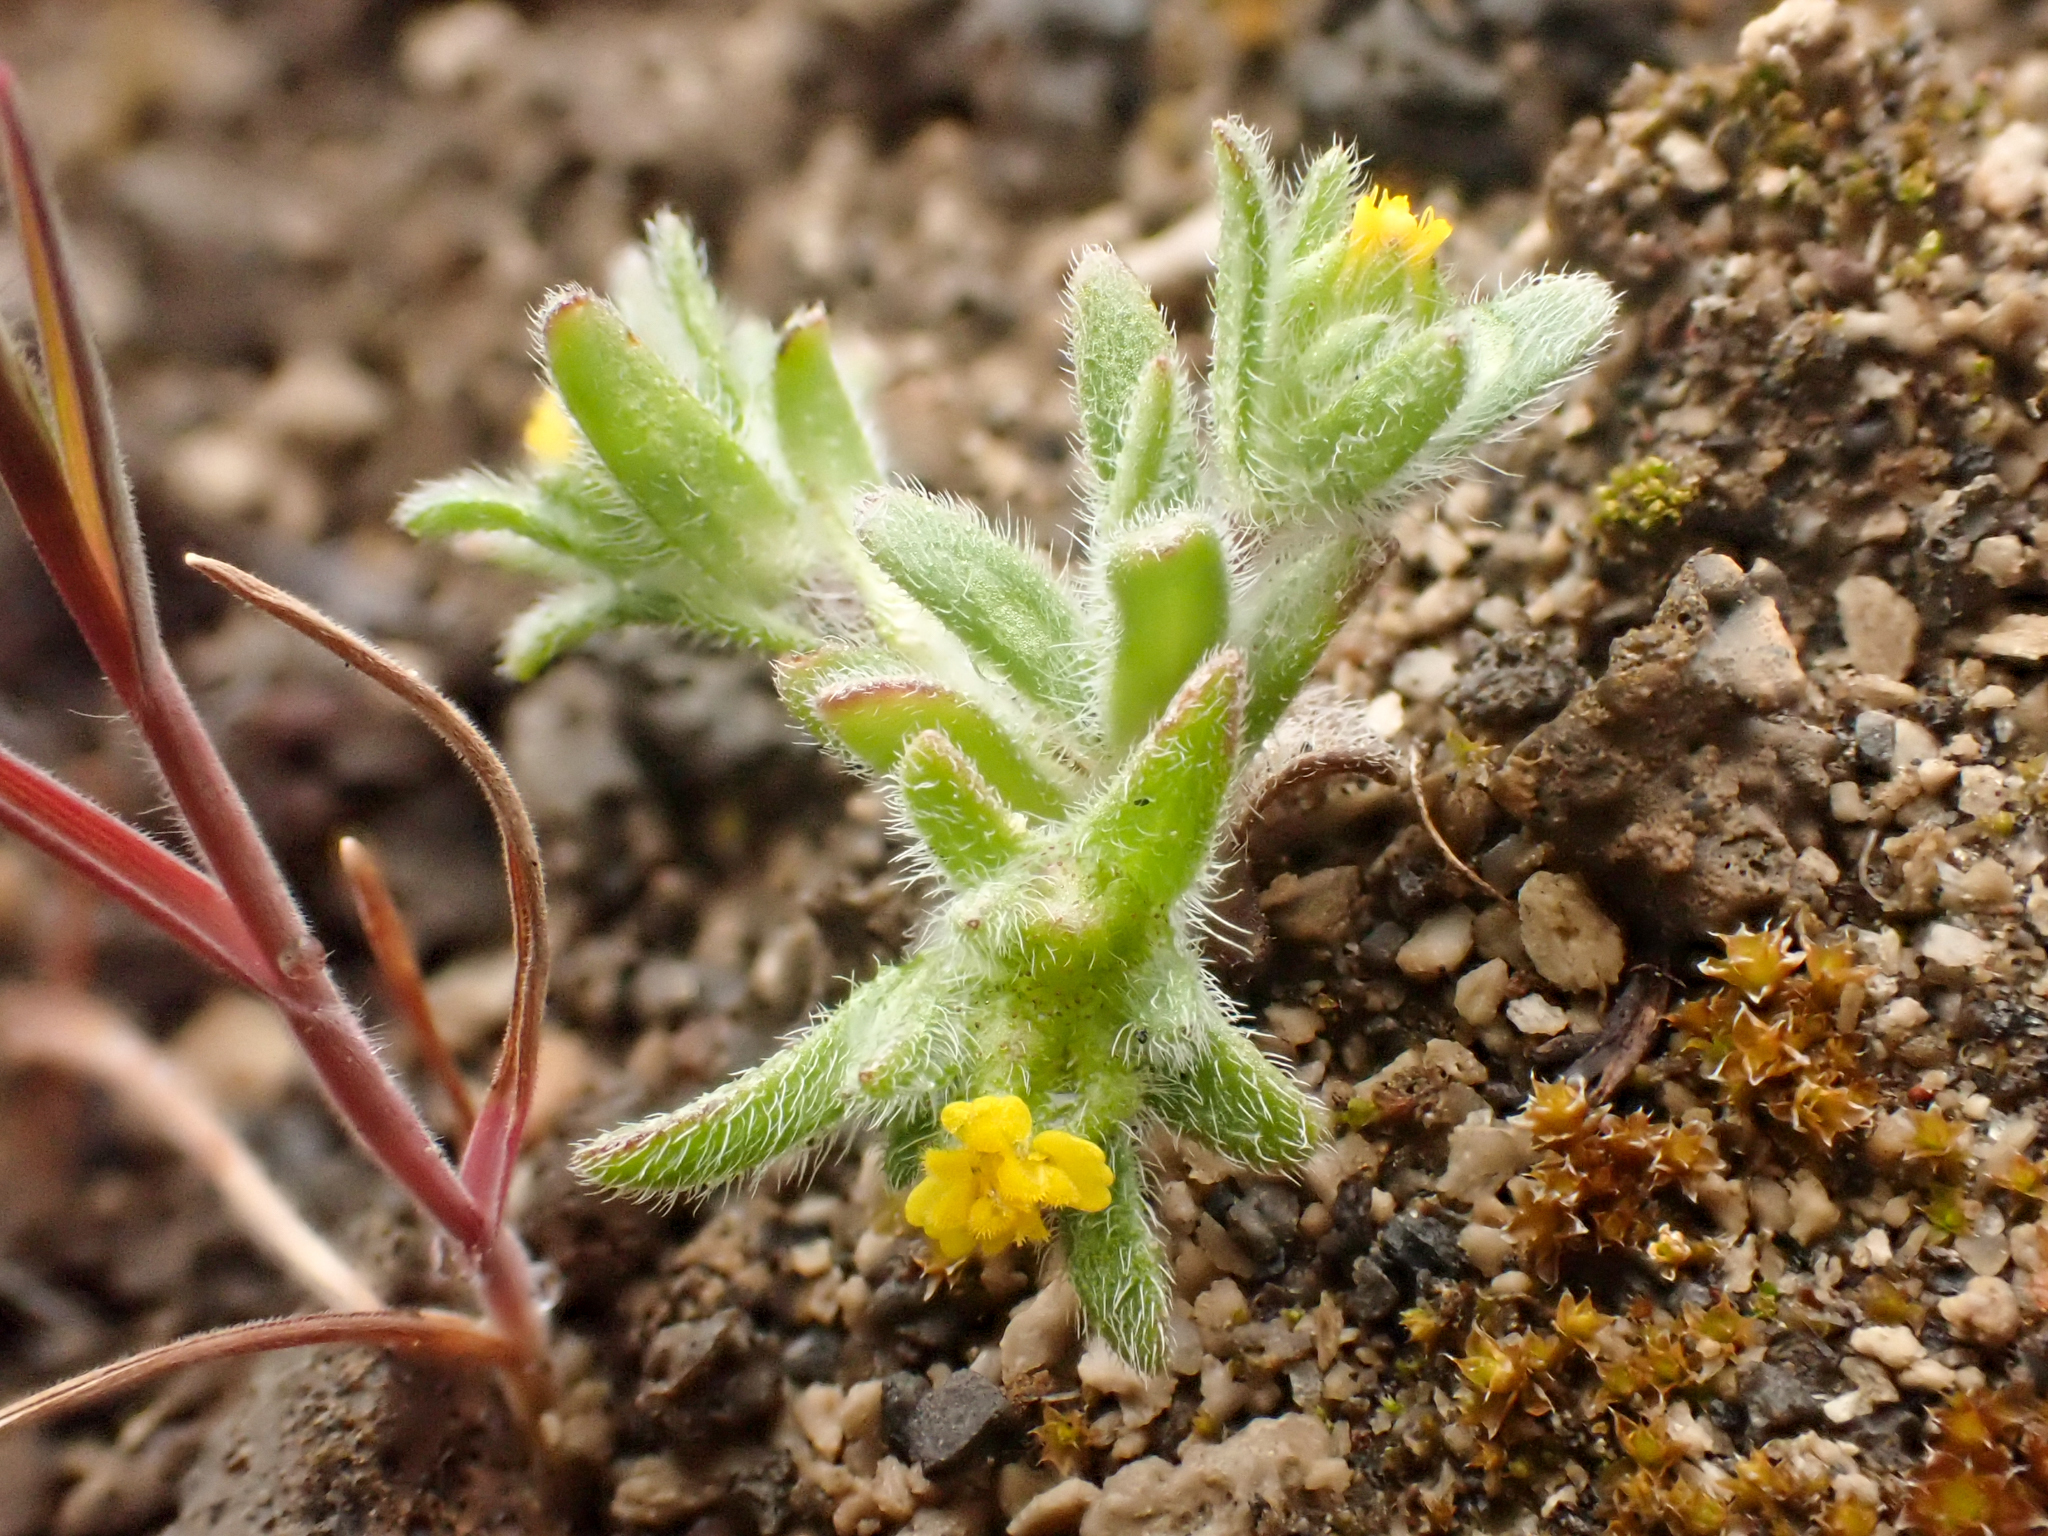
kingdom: Plantae
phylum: Tracheophyta
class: Magnoliopsida
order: Asterales
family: Asteraceae
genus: Hemizonella
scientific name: Hemizonella minima
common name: Opposite-leaved tarweed
